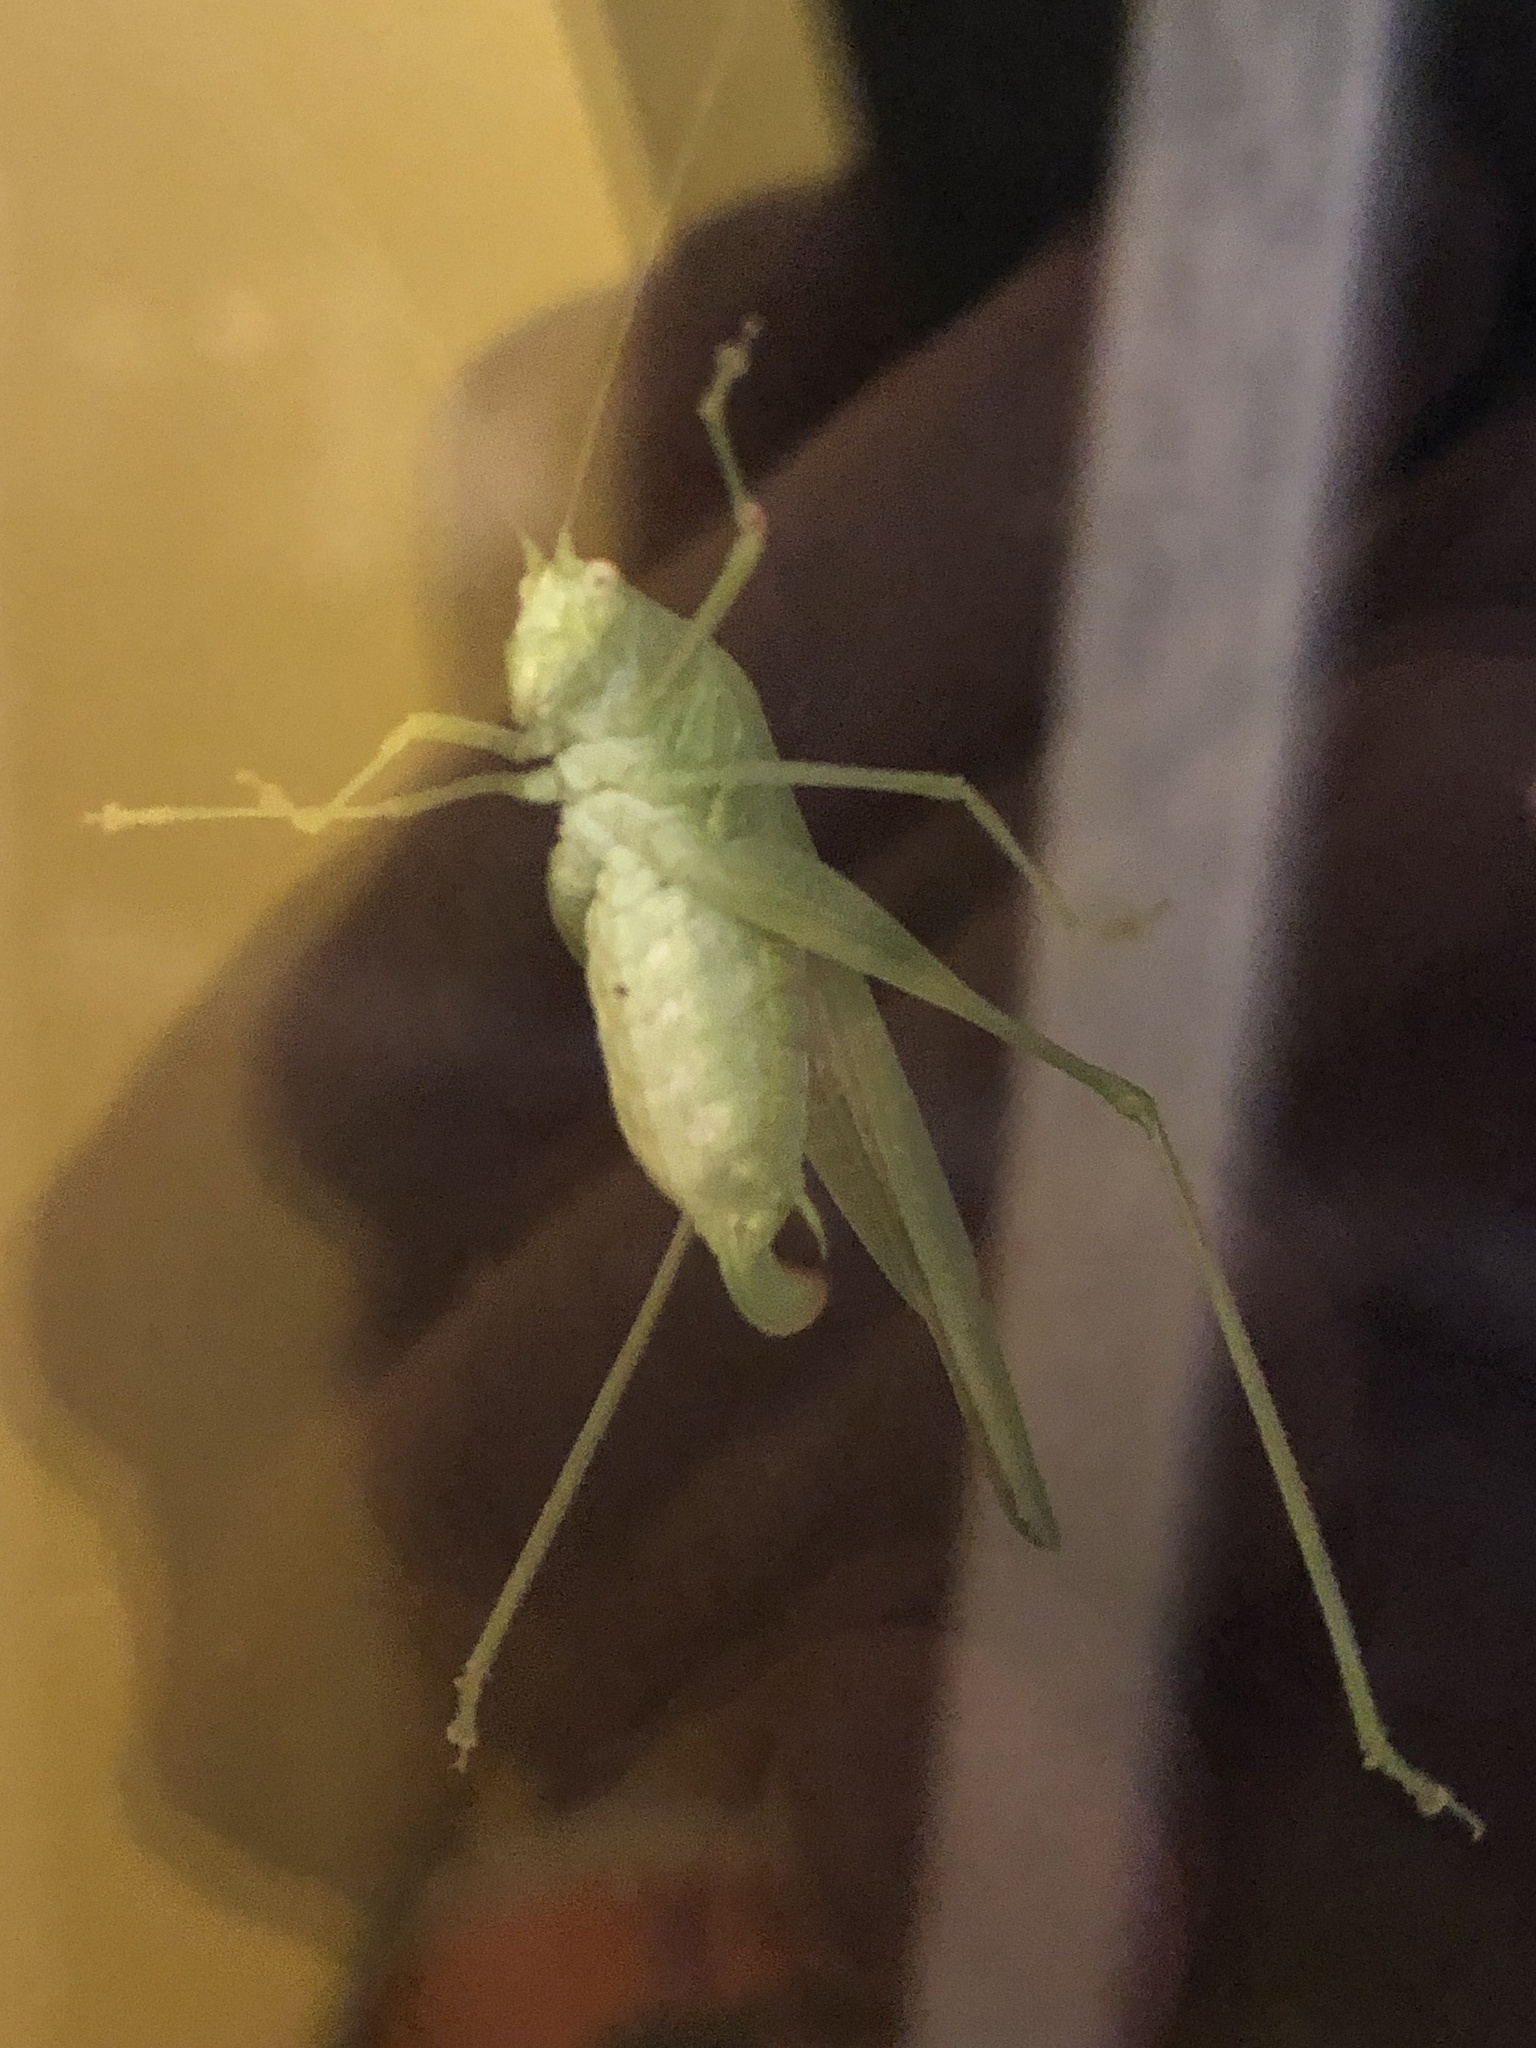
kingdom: Animalia
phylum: Arthropoda
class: Insecta
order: Orthoptera
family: Tettigoniidae
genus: Phaneroptera
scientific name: Phaneroptera nana
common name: Southern sickle bush-cricket
